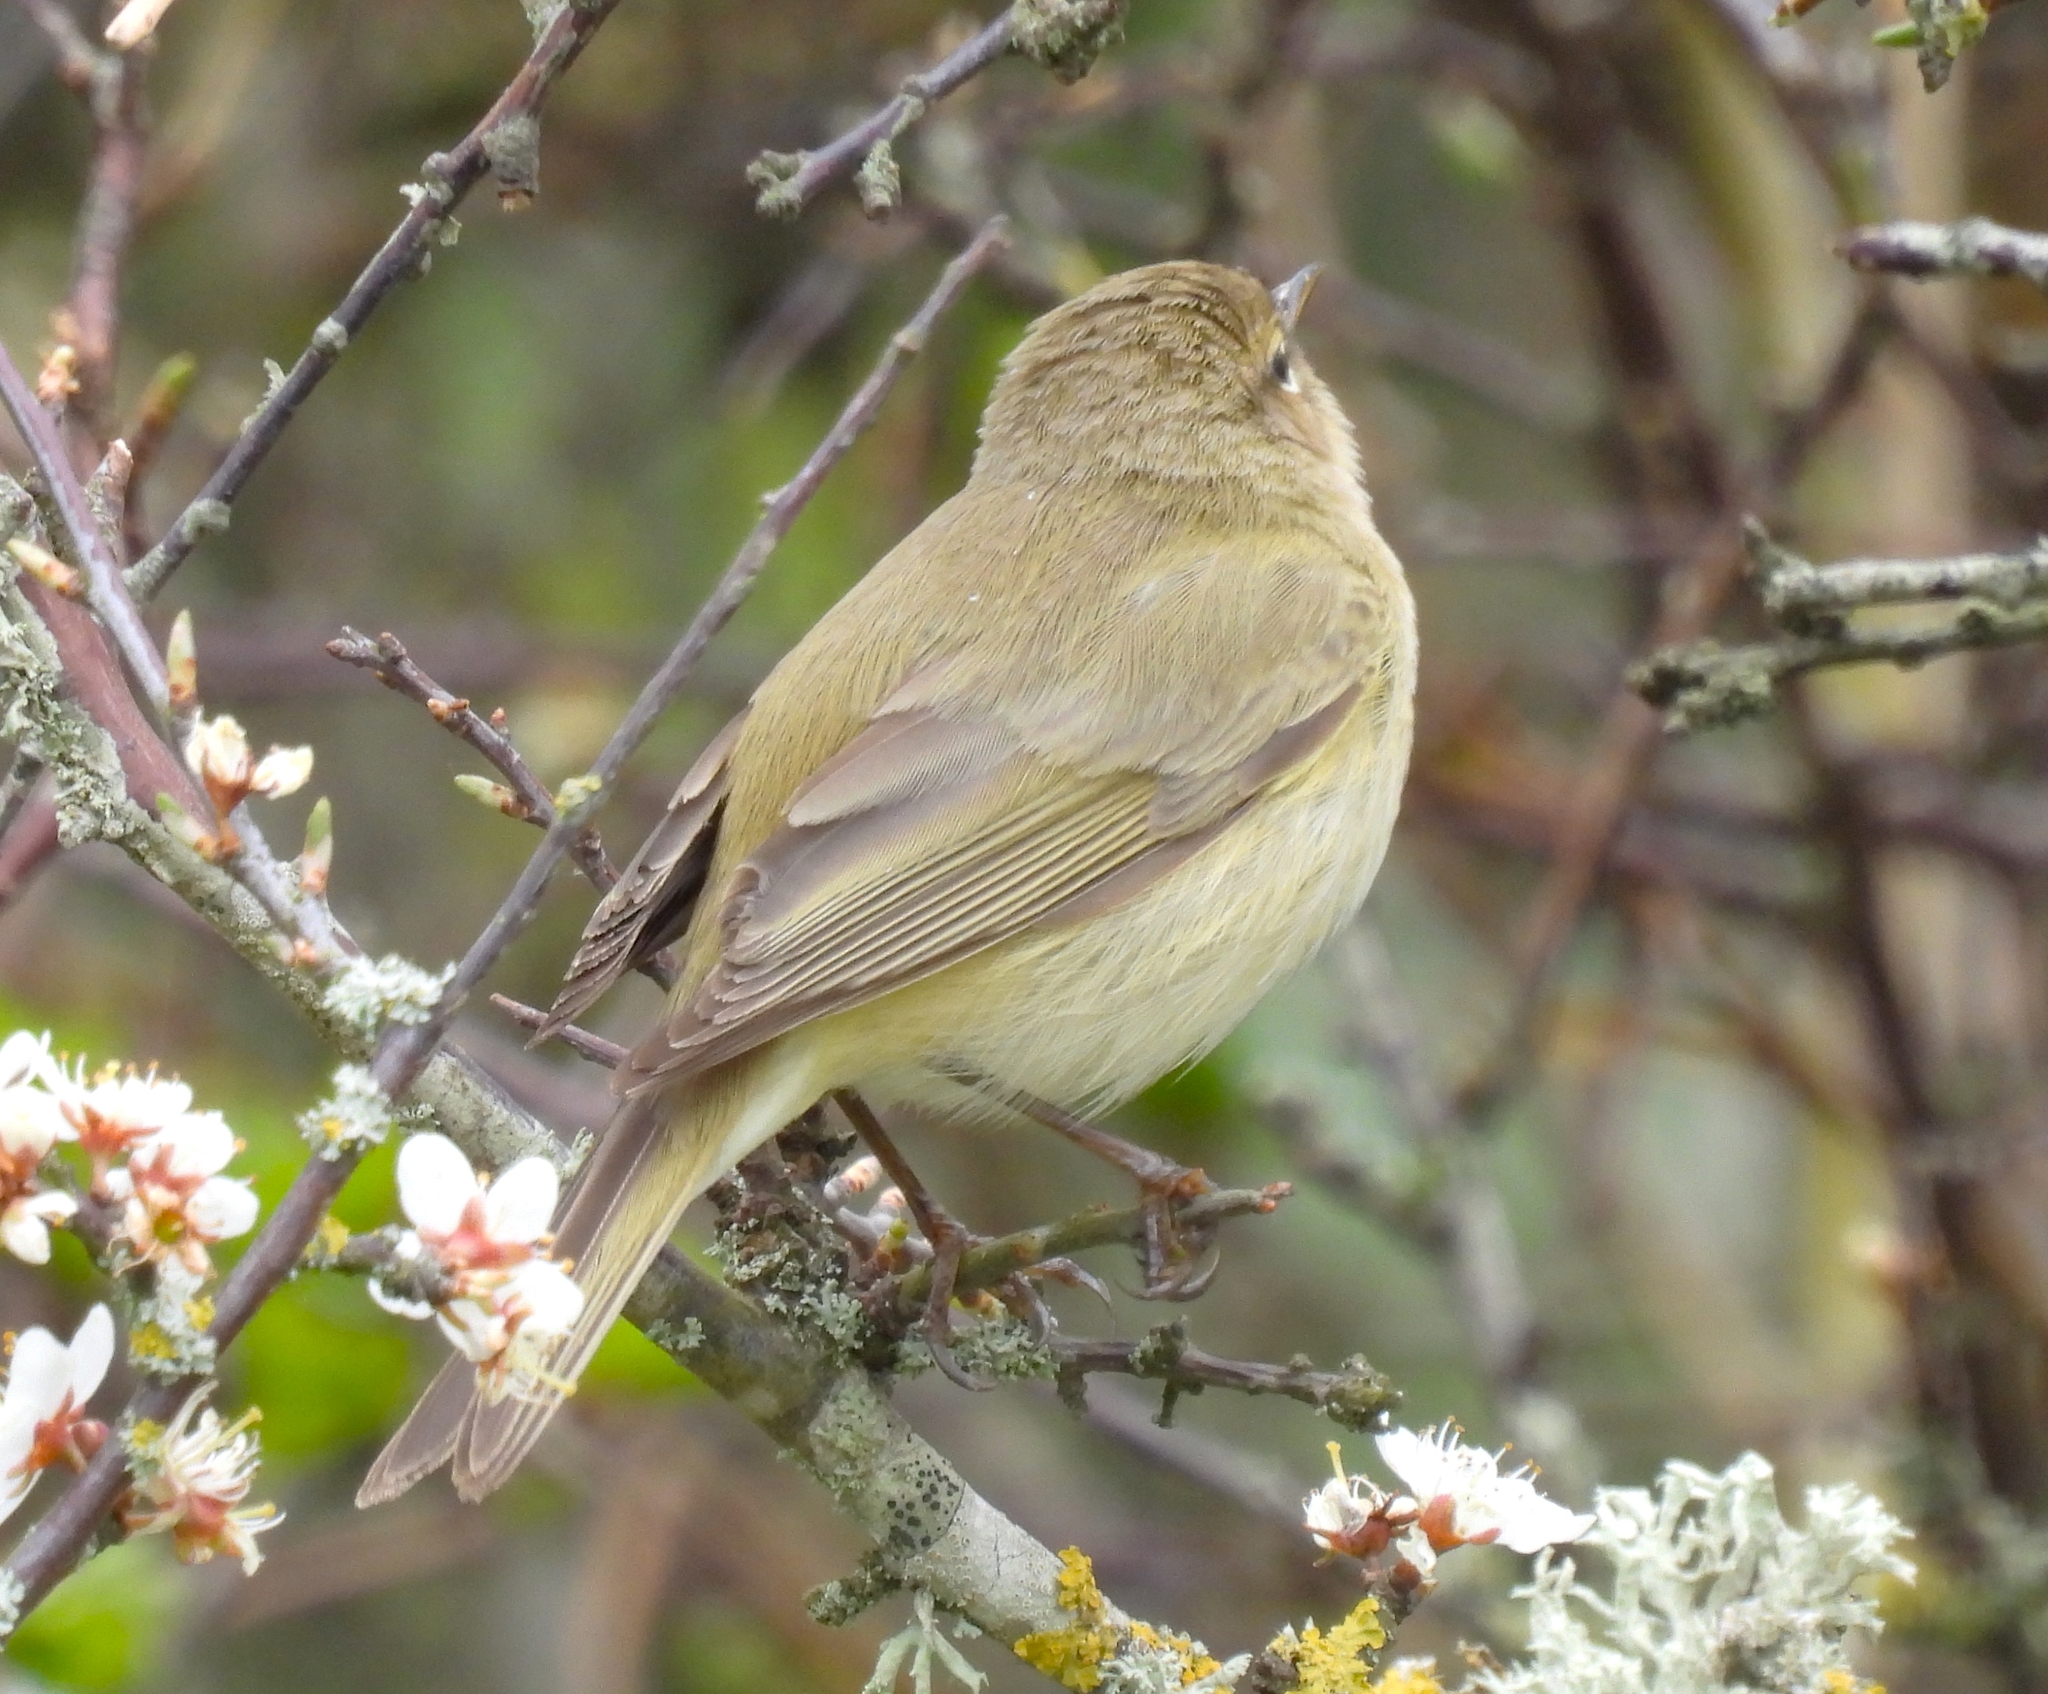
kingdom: Animalia
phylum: Chordata
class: Aves
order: Passeriformes
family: Phylloscopidae
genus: Phylloscopus
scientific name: Phylloscopus collybita
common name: Common chiffchaff
